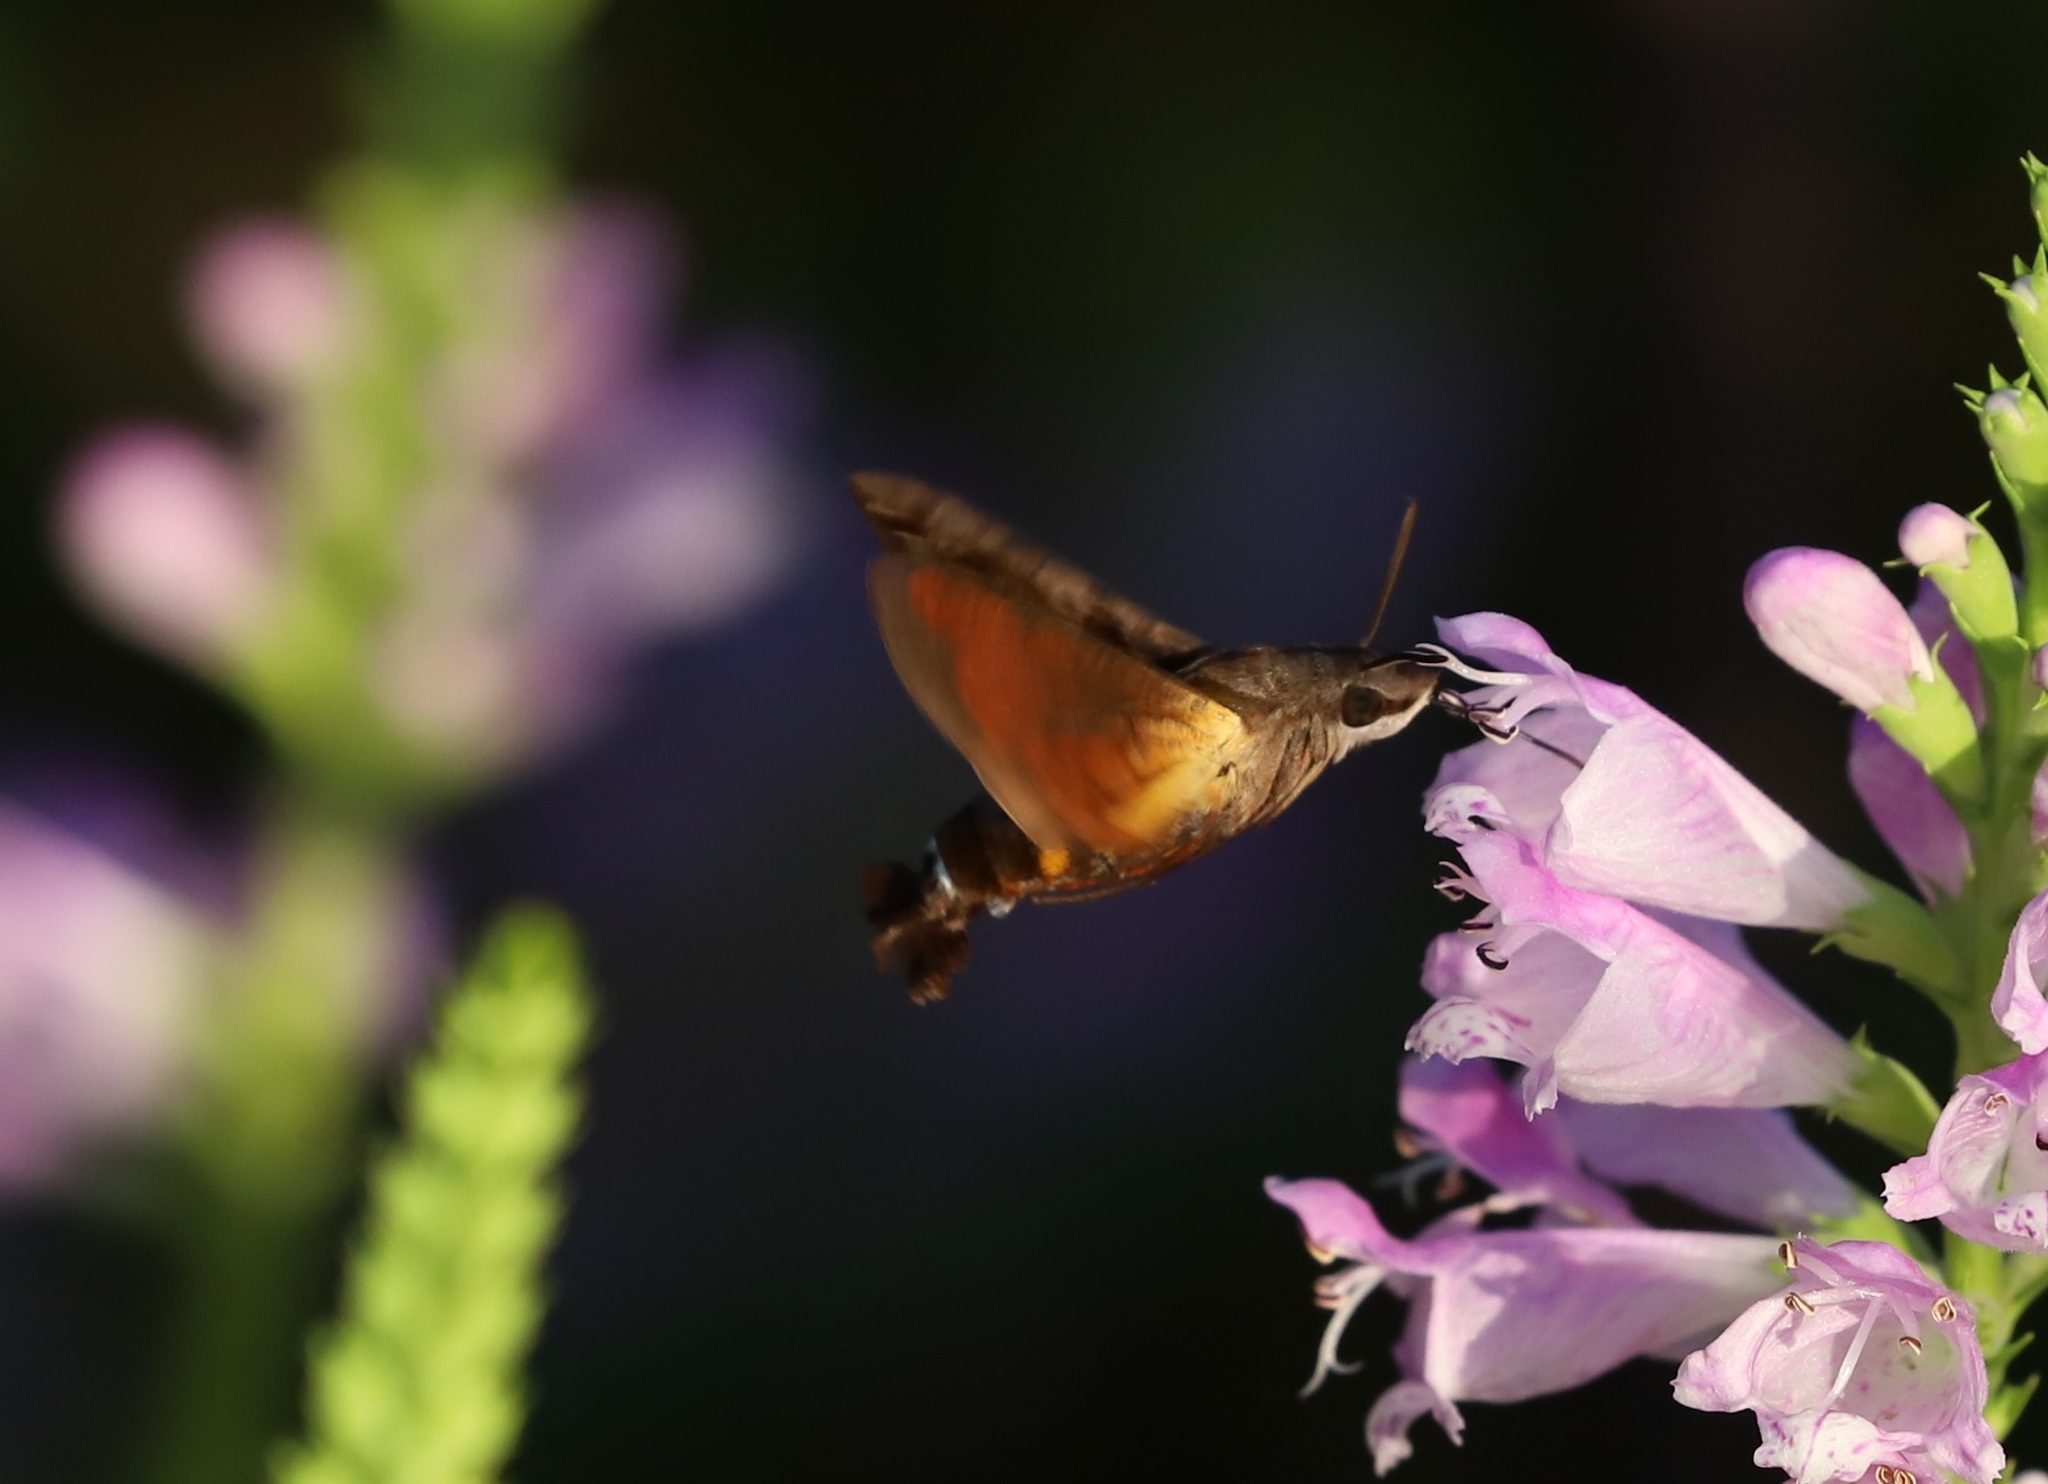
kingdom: Animalia
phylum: Arthropoda
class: Insecta
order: Lepidoptera
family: Sphingidae
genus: Macroglossum
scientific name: Macroglossum pyrrhosticta
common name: Hummingbird hawk moth
